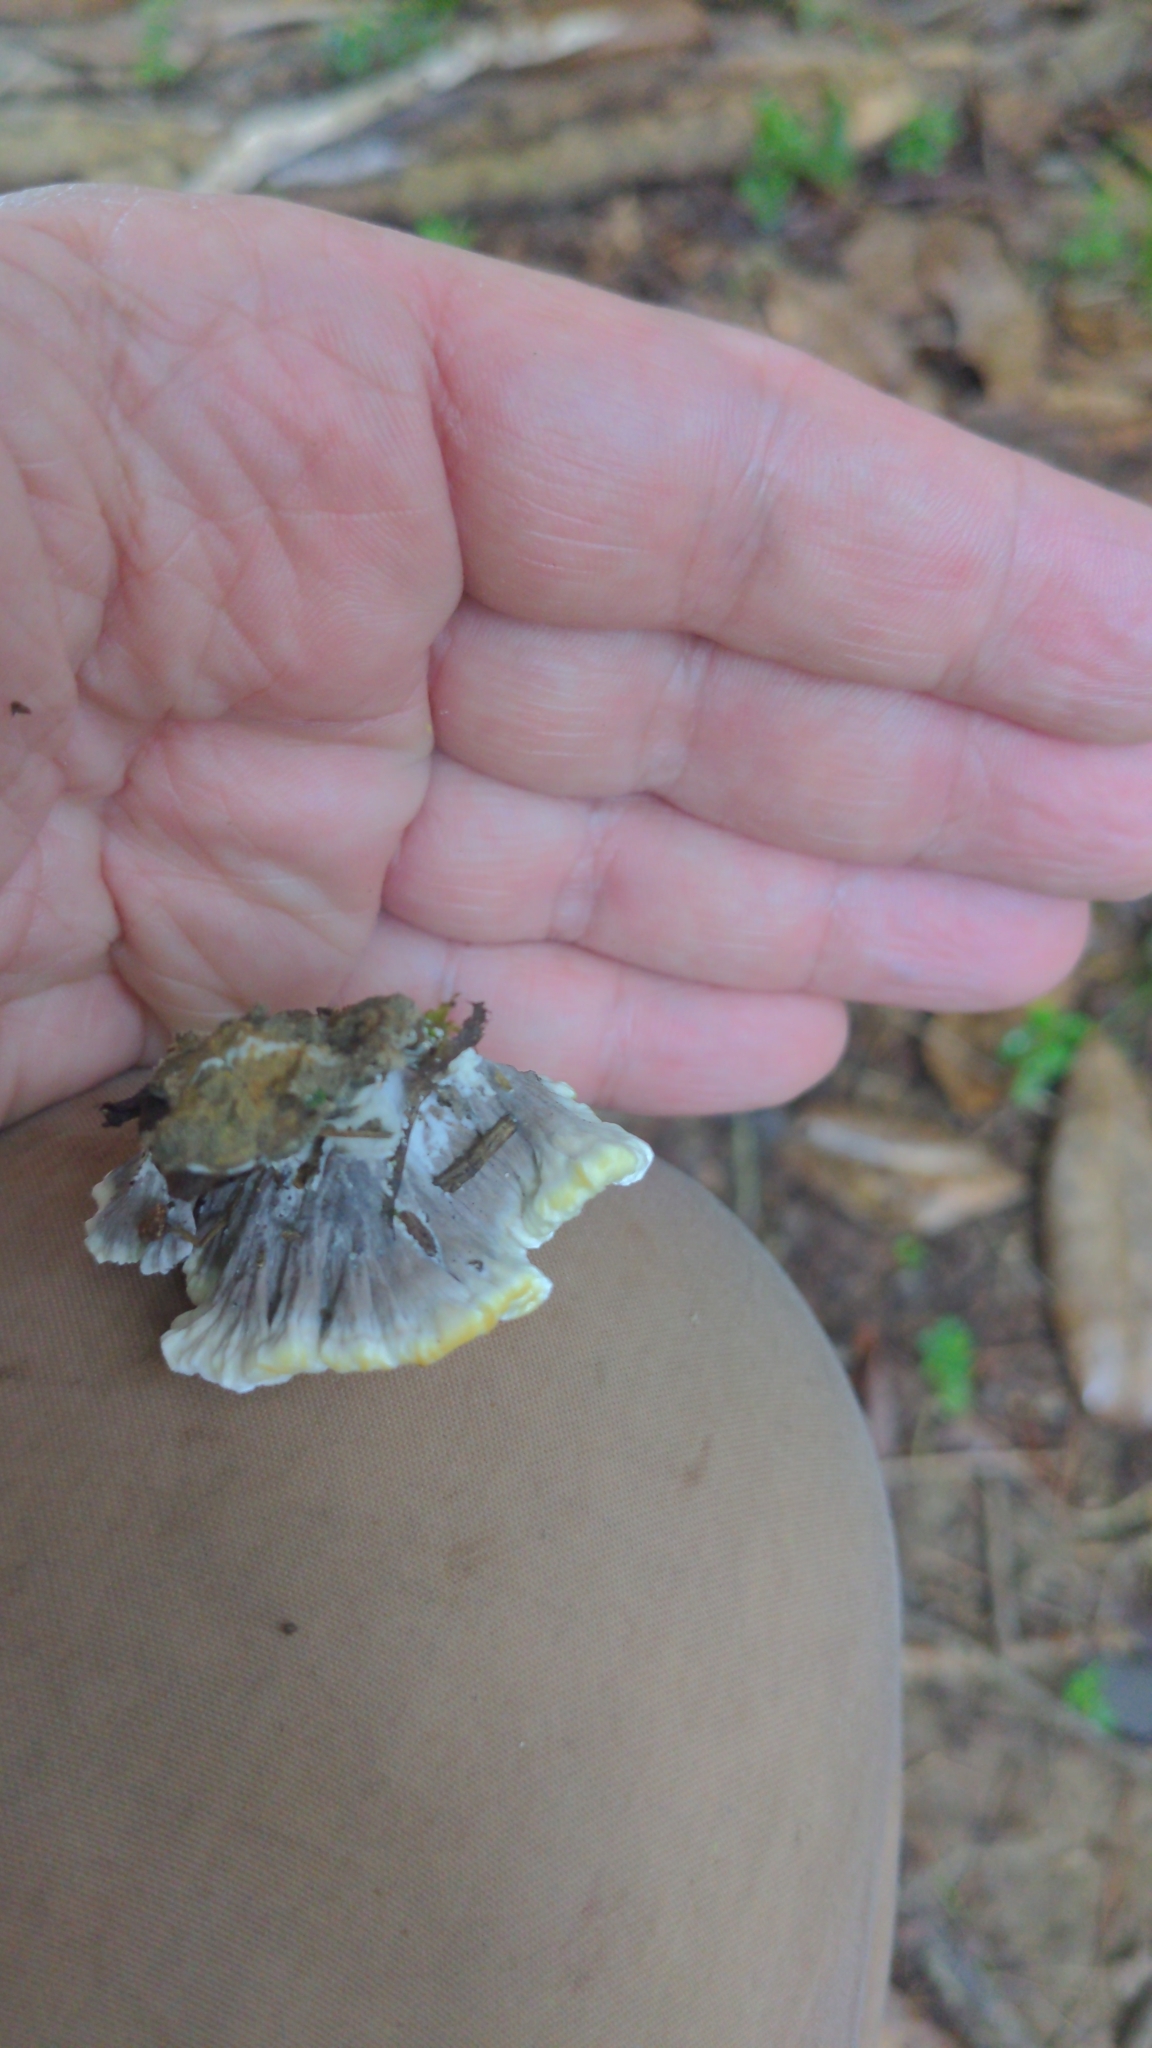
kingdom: Fungi
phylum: Basidiomycota
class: Agaricomycetes
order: Thelephorales
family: Thelephoraceae
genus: Thelephora
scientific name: Thelephora vialis
